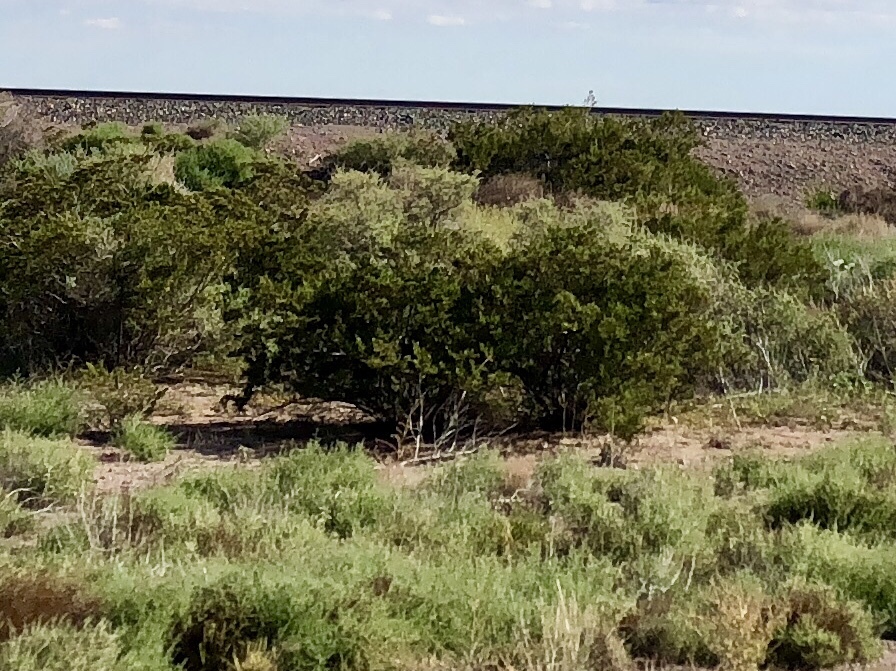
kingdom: Plantae
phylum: Tracheophyta
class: Magnoliopsida
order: Zygophyllales
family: Zygophyllaceae
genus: Larrea
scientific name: Larrea tridentata
